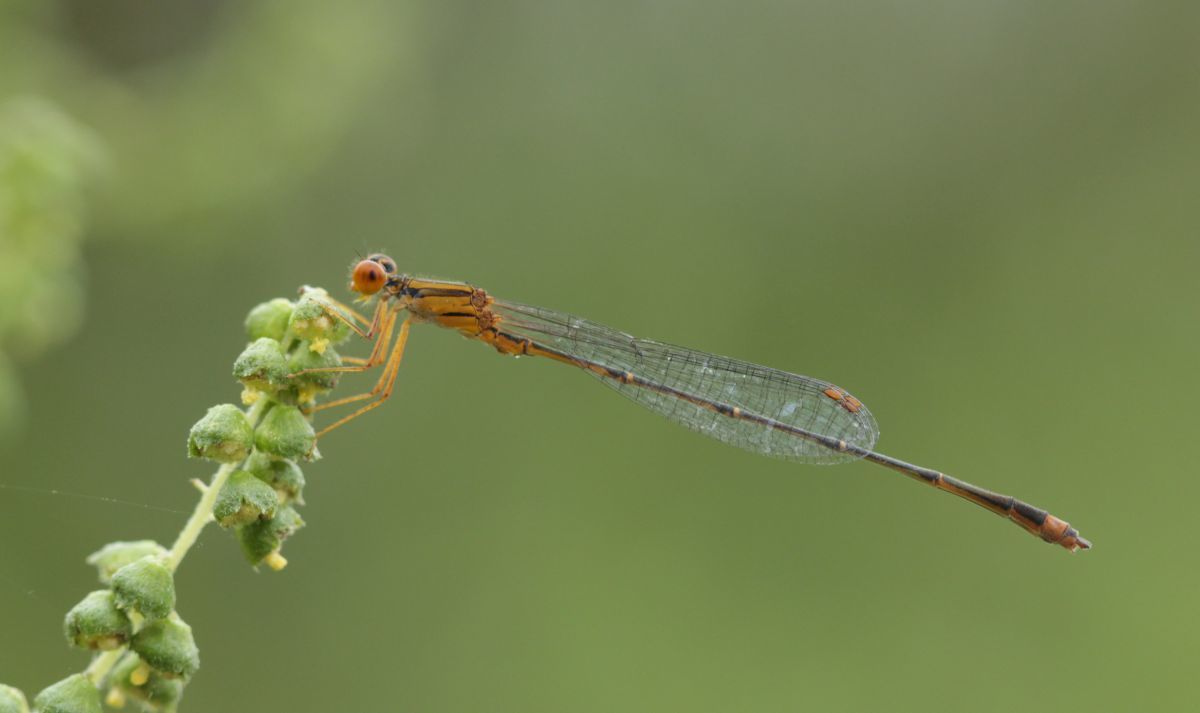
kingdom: Animalia
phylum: Arthropoda
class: Insecta
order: Odonata
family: Coenagrionidae
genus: Enallagma
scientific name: Enallagma signatum
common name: Orange bluet
